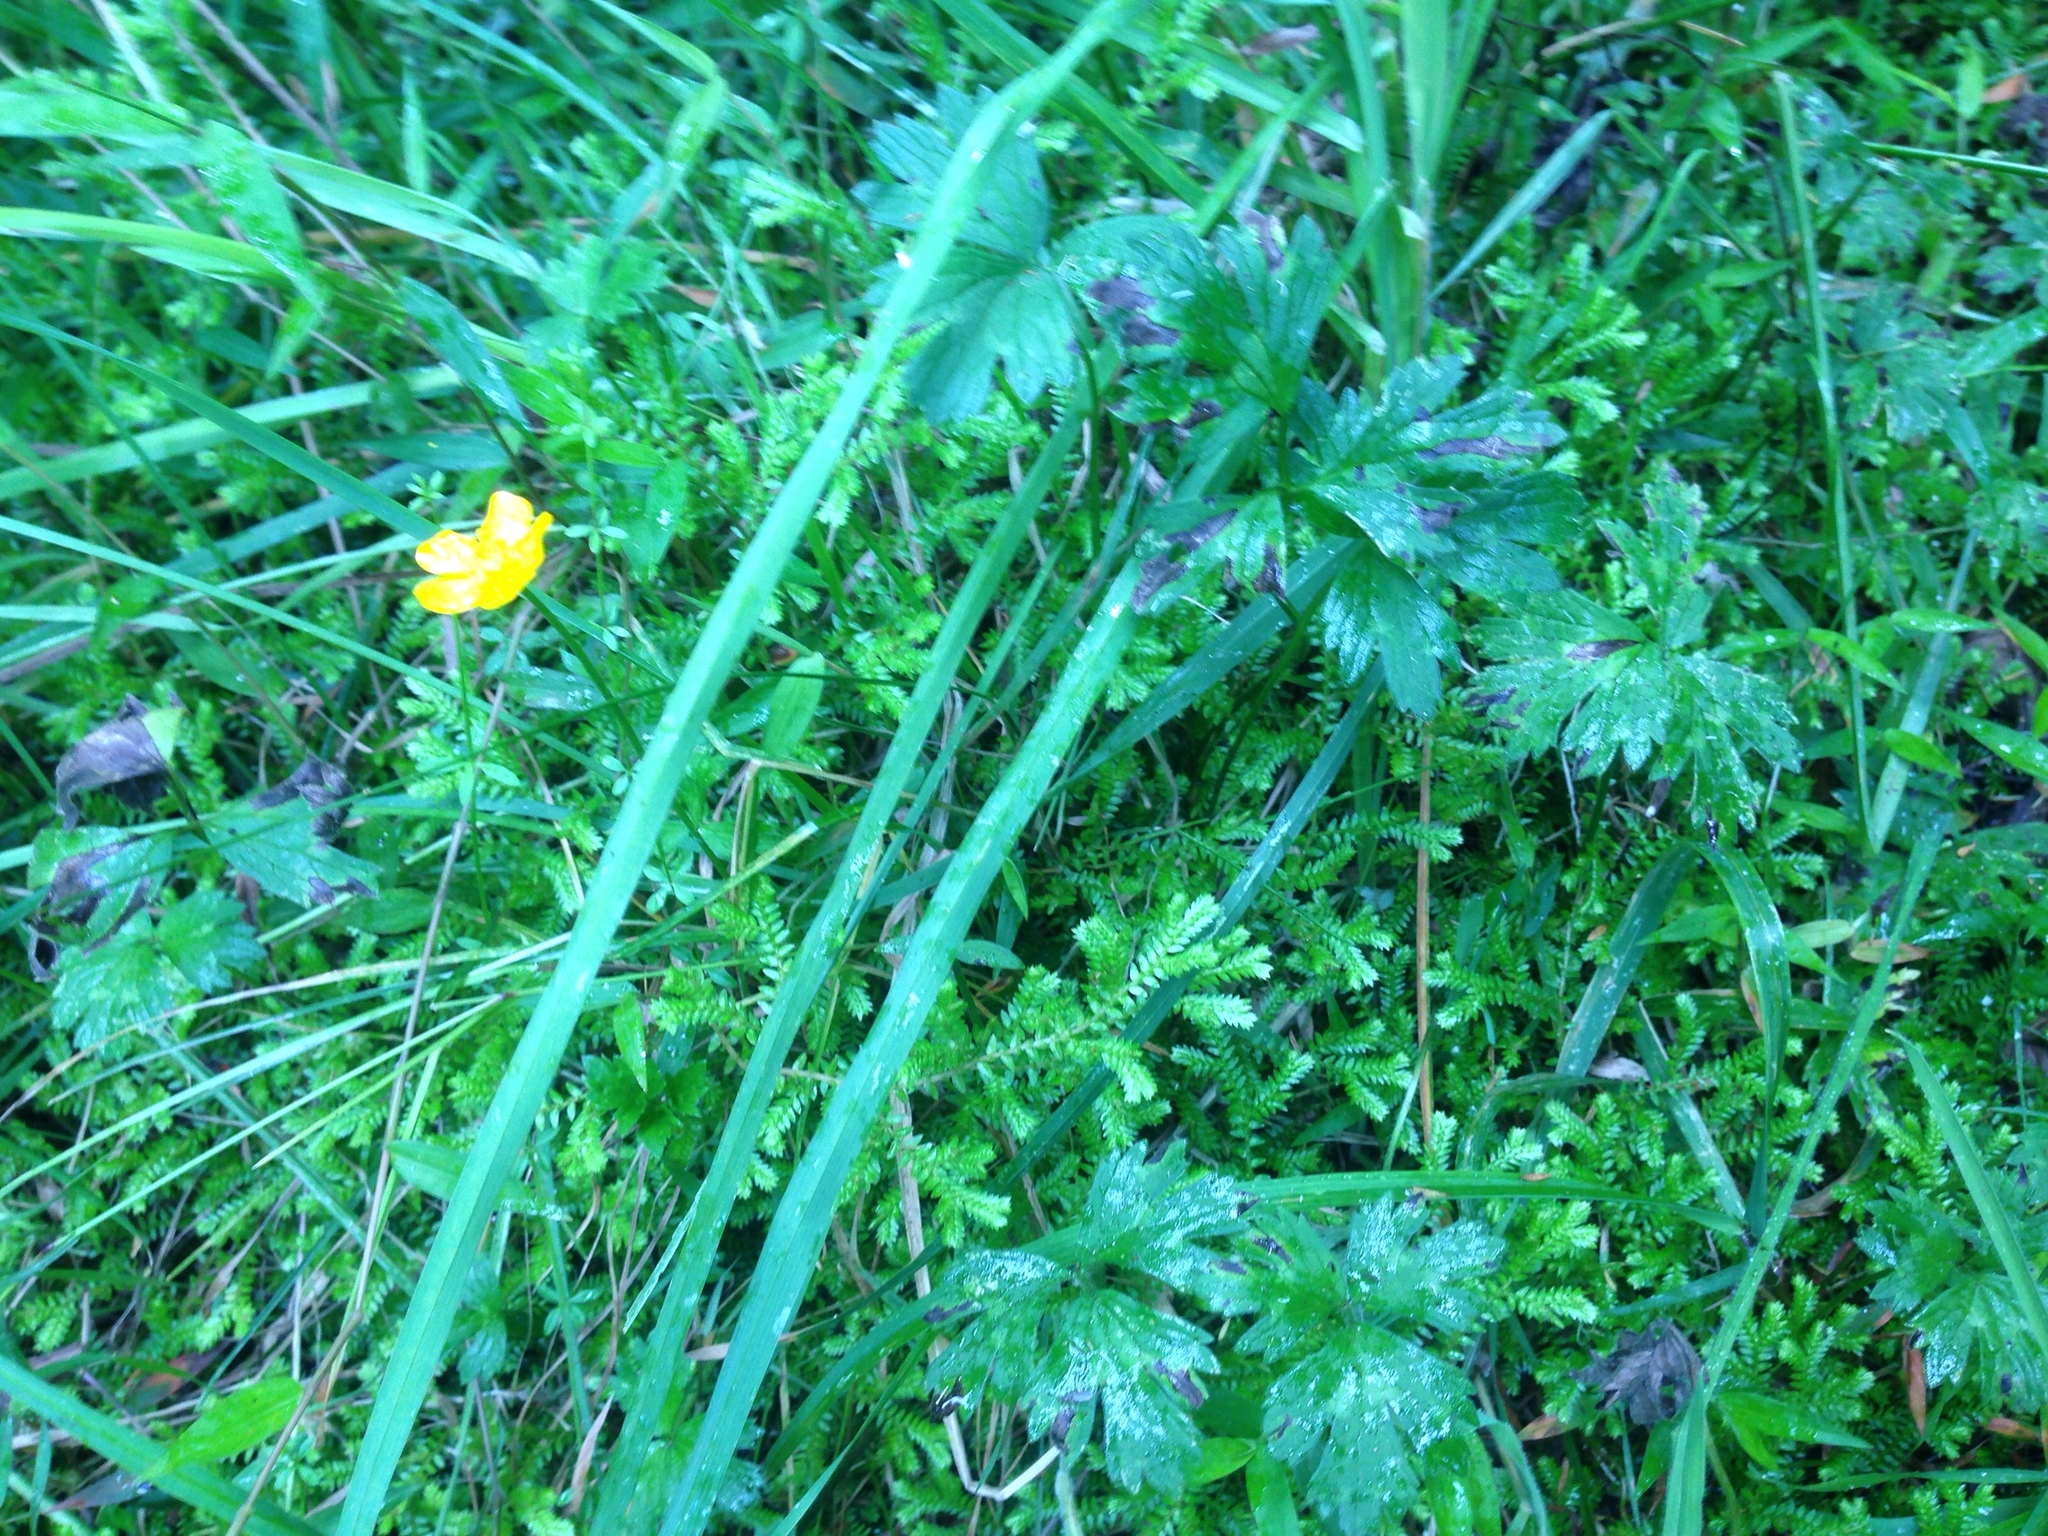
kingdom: Plantae
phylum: Tracheophyta
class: Magnoliopsida
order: Ranunculales
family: Ranunculaceae
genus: Ranunculus
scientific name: Ranunculus repens
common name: Creeping buttercup
